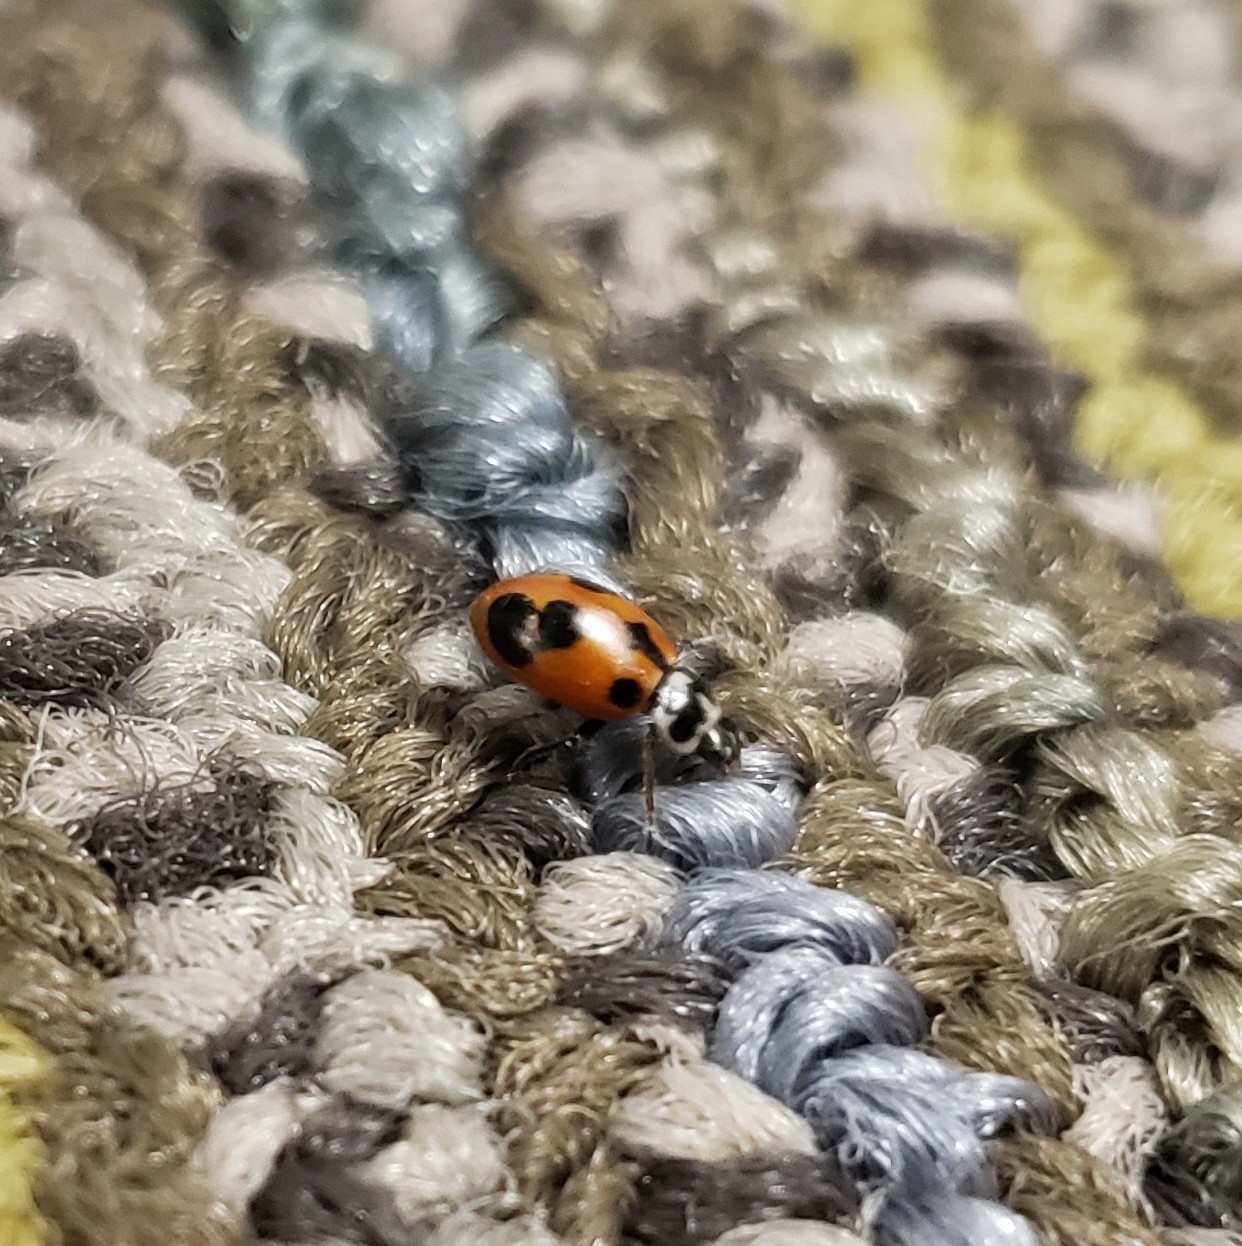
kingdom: Animalia
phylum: Arthropoda
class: Insecta
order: Coleoptera
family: Coccinellidae
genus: Hippodamia
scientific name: Hippodamia parenthesis
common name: Parenthesis lady beetle
